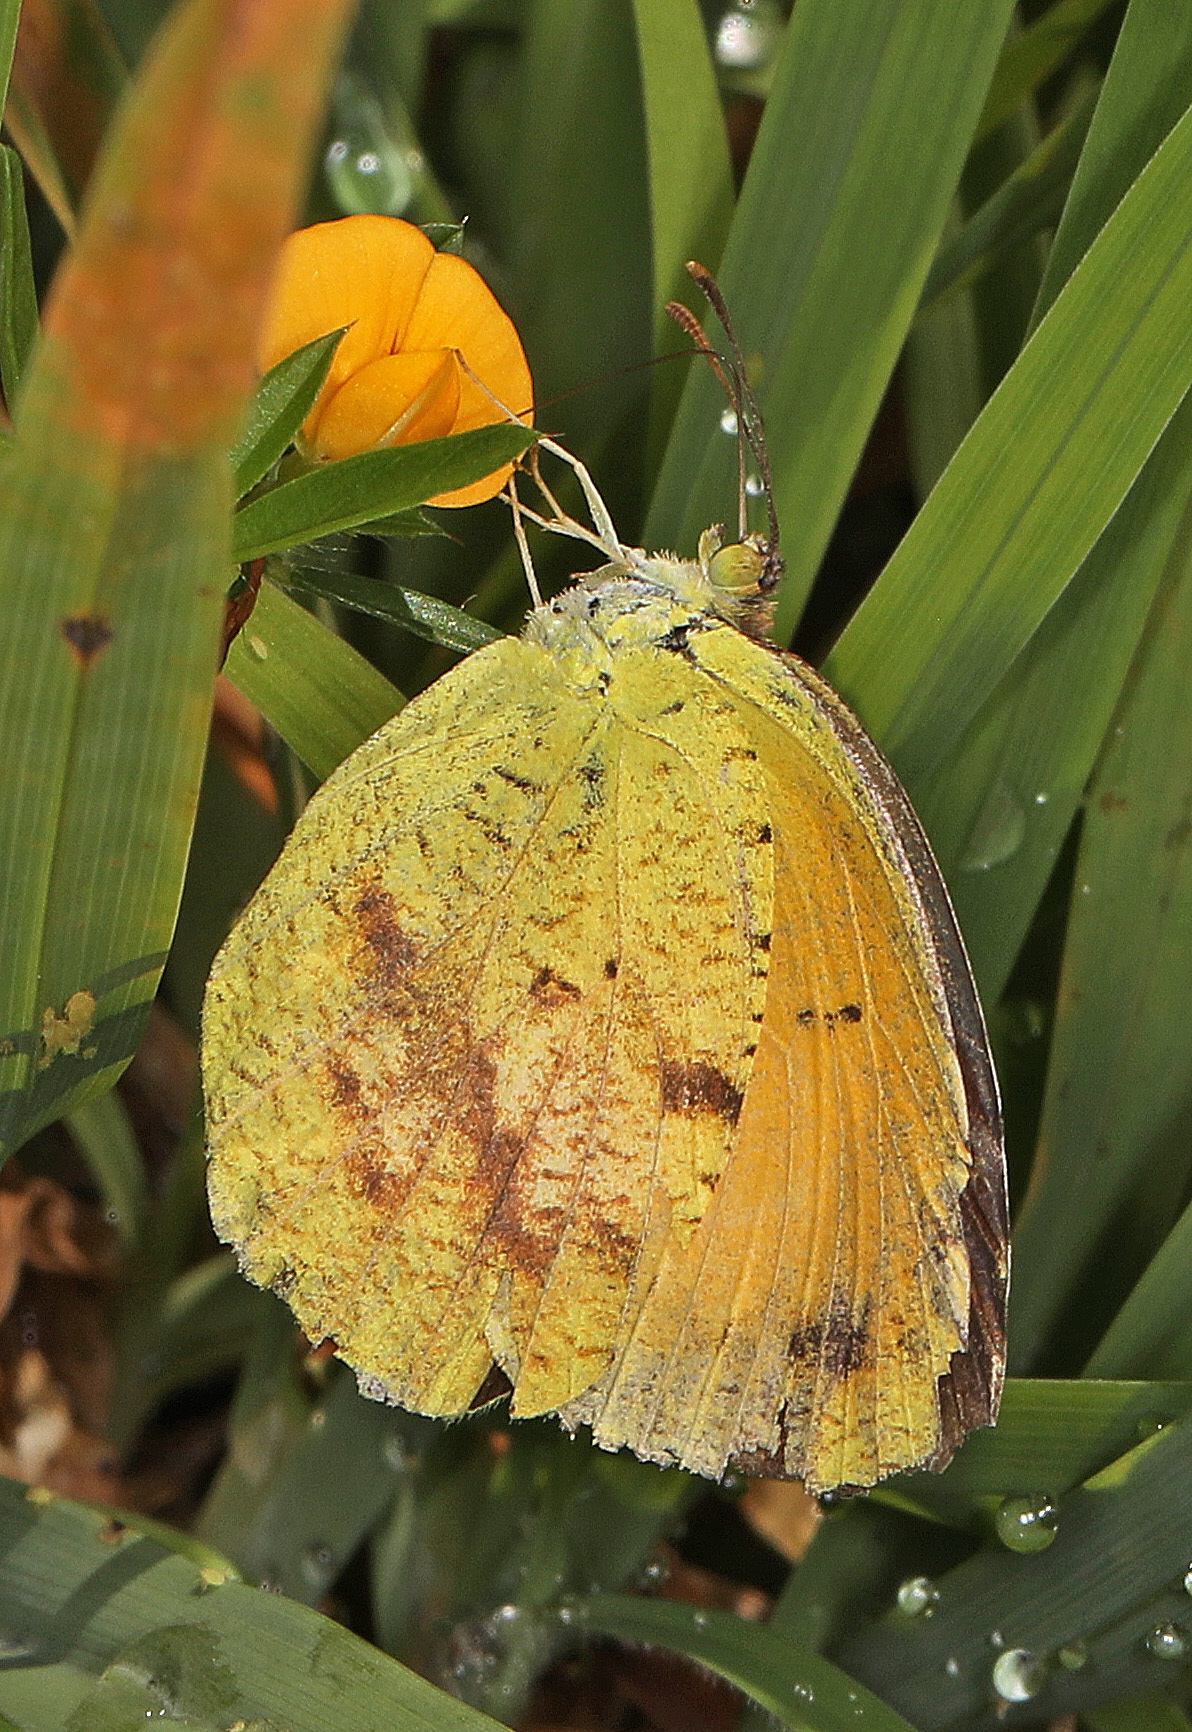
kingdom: Animalia
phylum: Arthropoda
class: Insecta
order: Lepidoptera
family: Pieridae
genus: Abaeis
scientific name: Abaeis nicippe
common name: Sleepy orange
